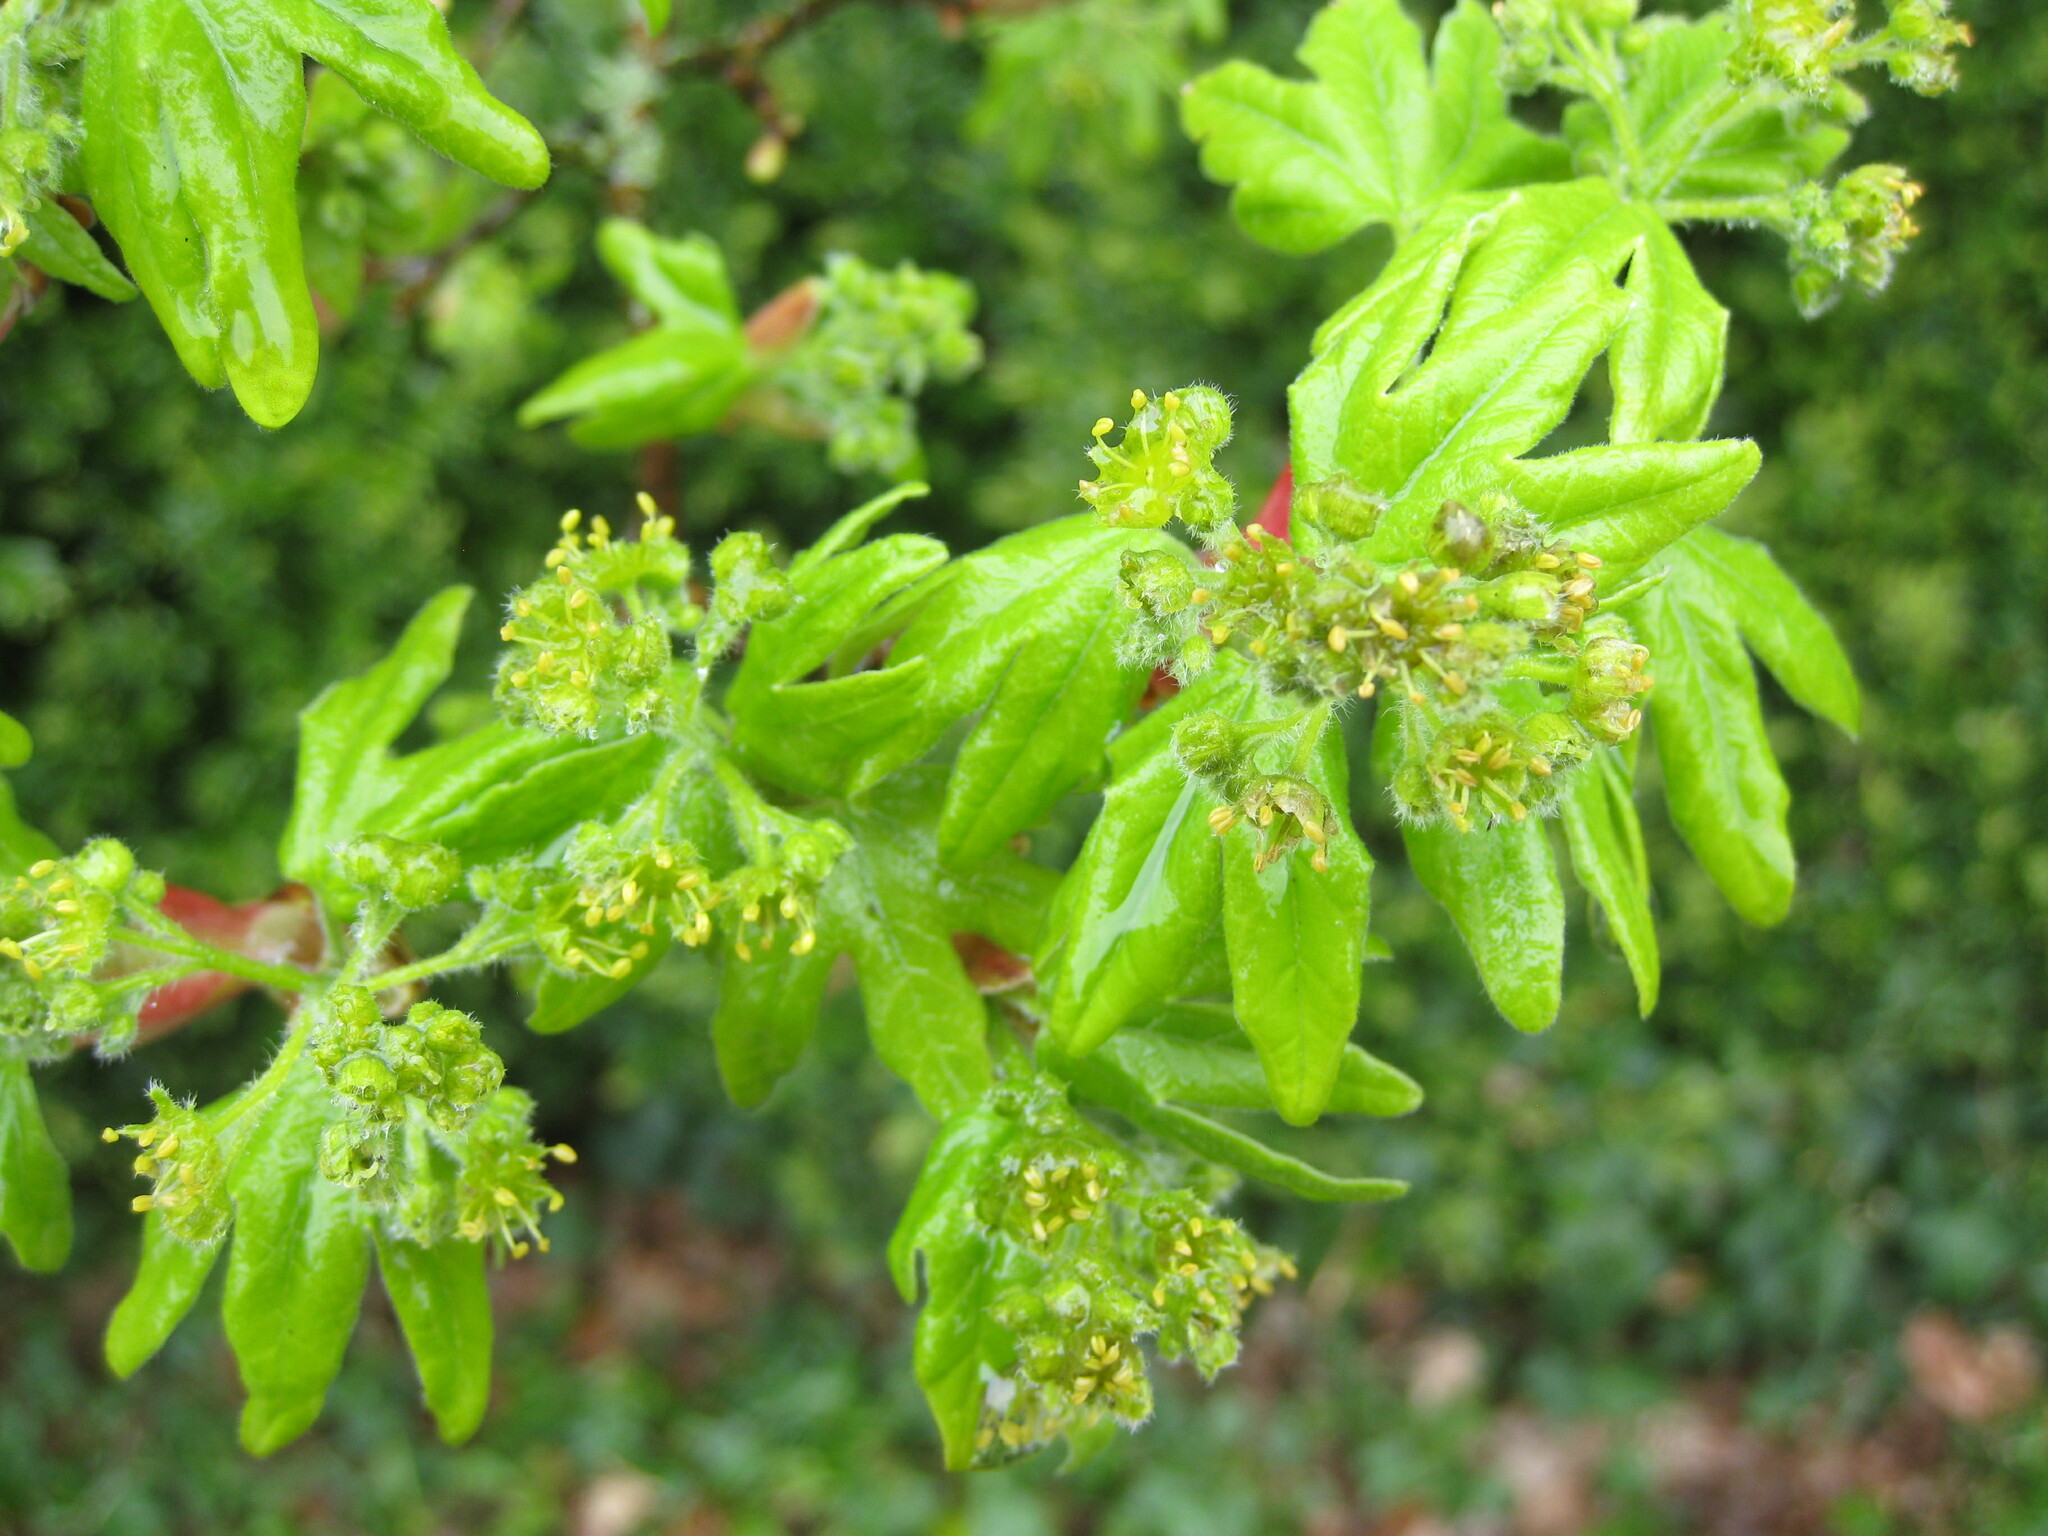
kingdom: Plantae
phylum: Tracheophyta
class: Magnoliopsida
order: Sapindales
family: Sapindaceae
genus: Acer
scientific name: Acer campestre
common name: Field maple
